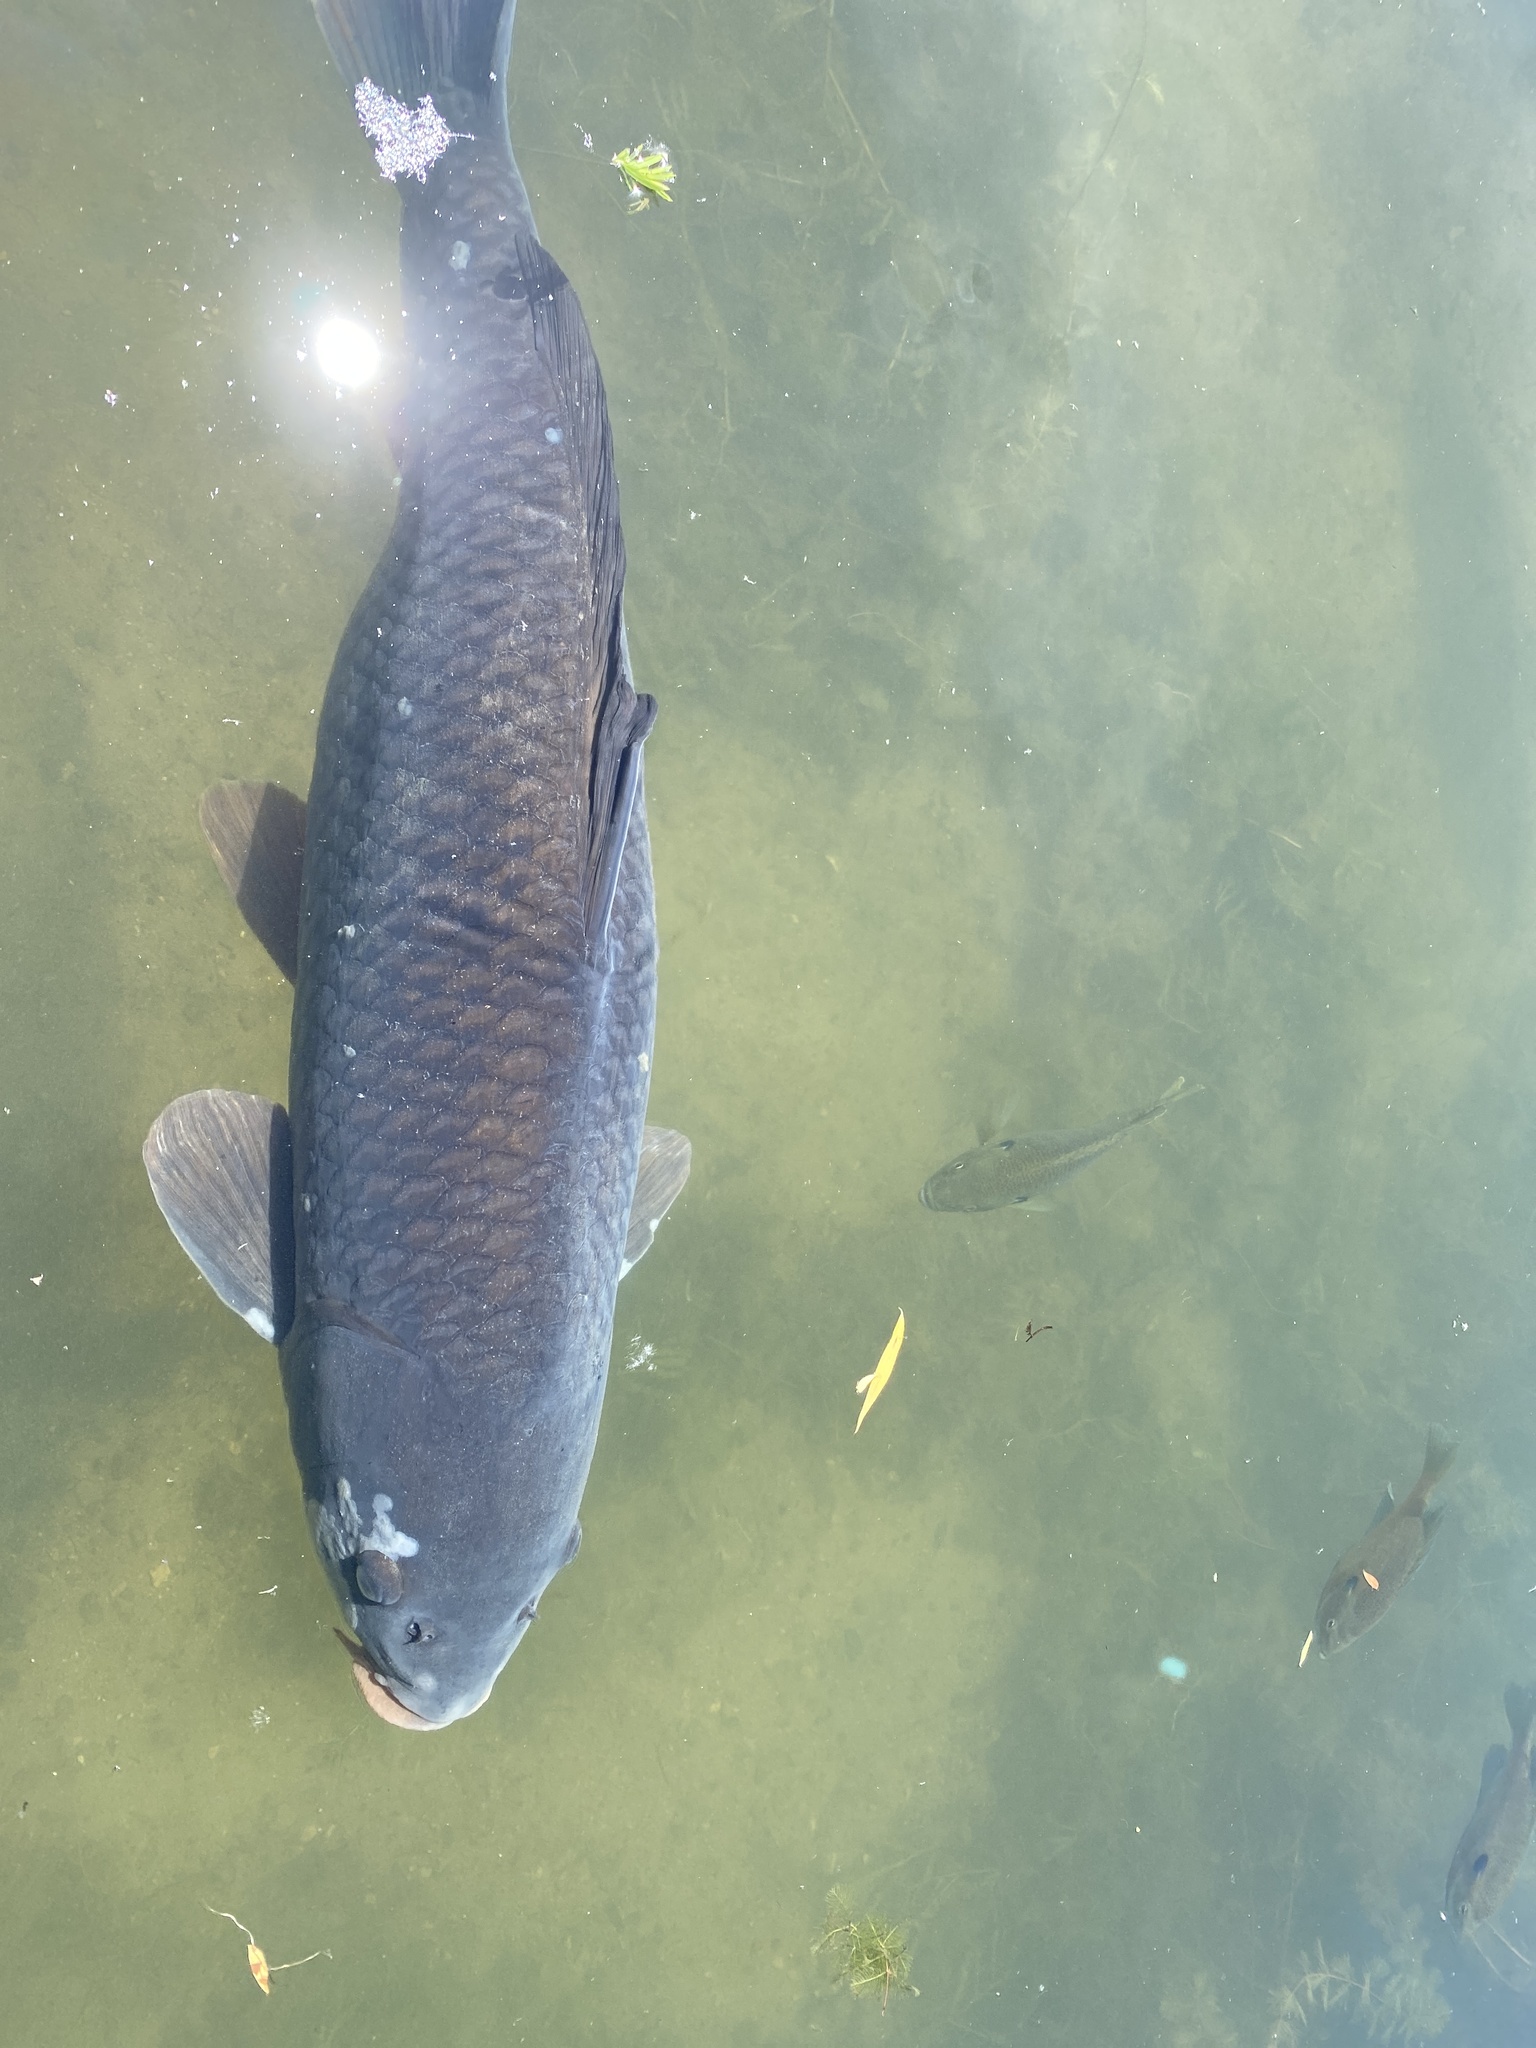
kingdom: Animalia
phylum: Chordata
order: Cypriniformes
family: Cyprinidae
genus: Cyprinus
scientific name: Cyprinus carpio
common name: Common carp
